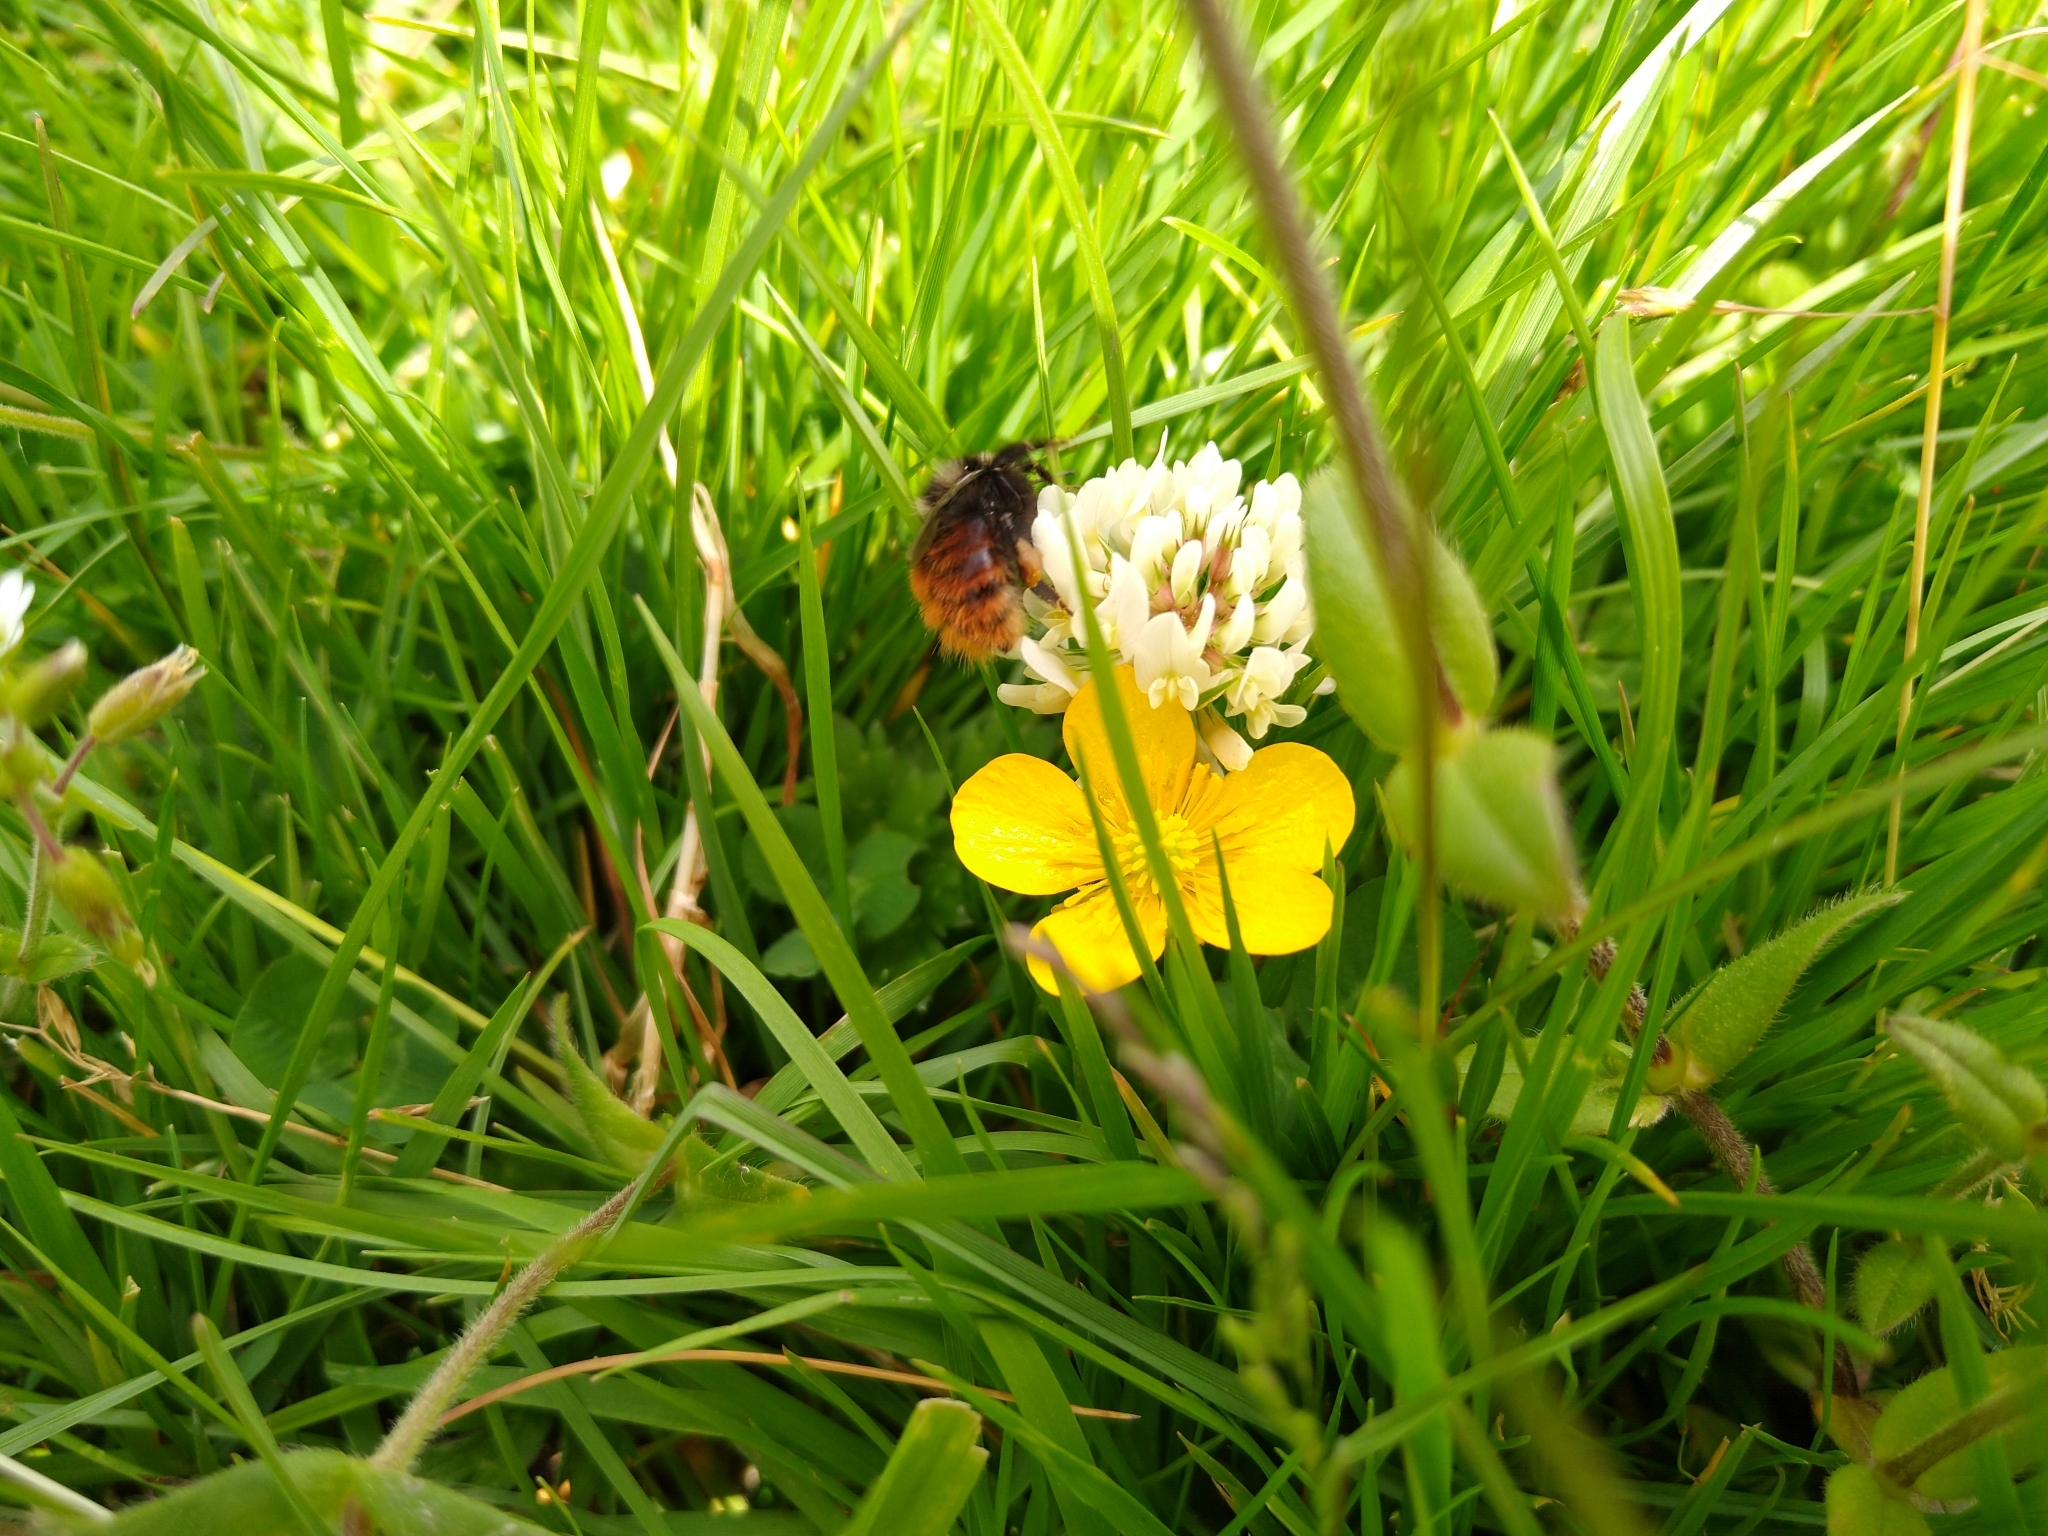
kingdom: Animalia
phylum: Arthropoda
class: Insecta
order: Hymenoptera
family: Apidae
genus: Bombus
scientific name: Bombus monticola
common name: Bilberry humble-bee
